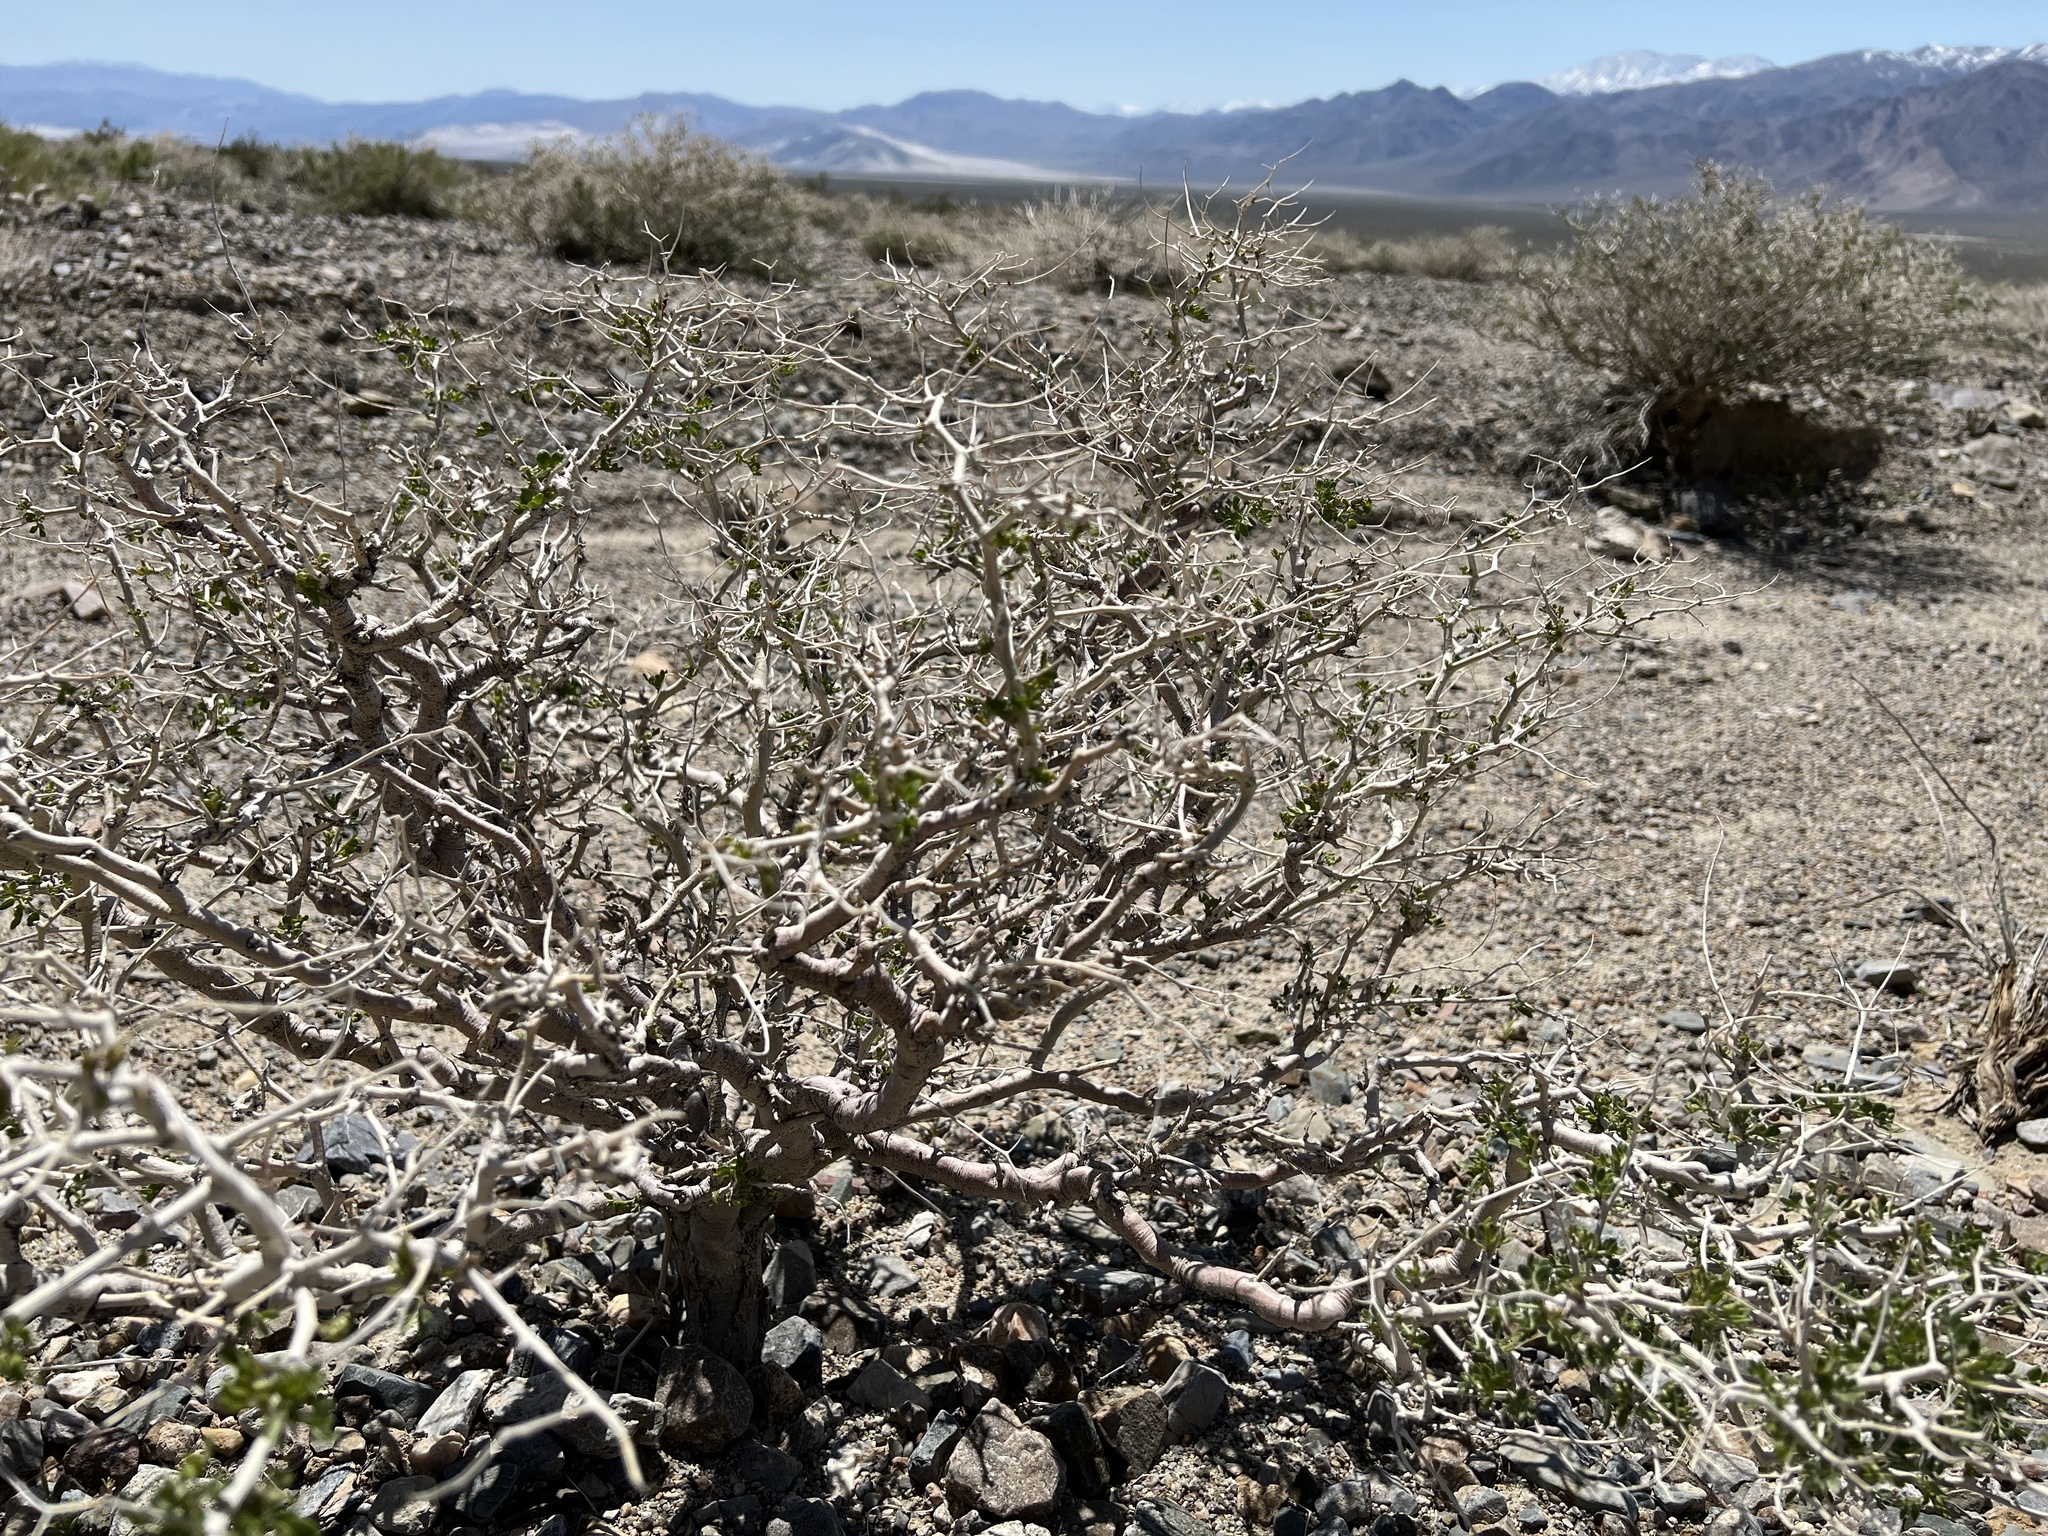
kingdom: Plantae
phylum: Tracheophyta
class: Magnoliopsida
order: Fabales
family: Fabaceae
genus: Psorothamnus
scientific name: Psorothamnus arborescens
